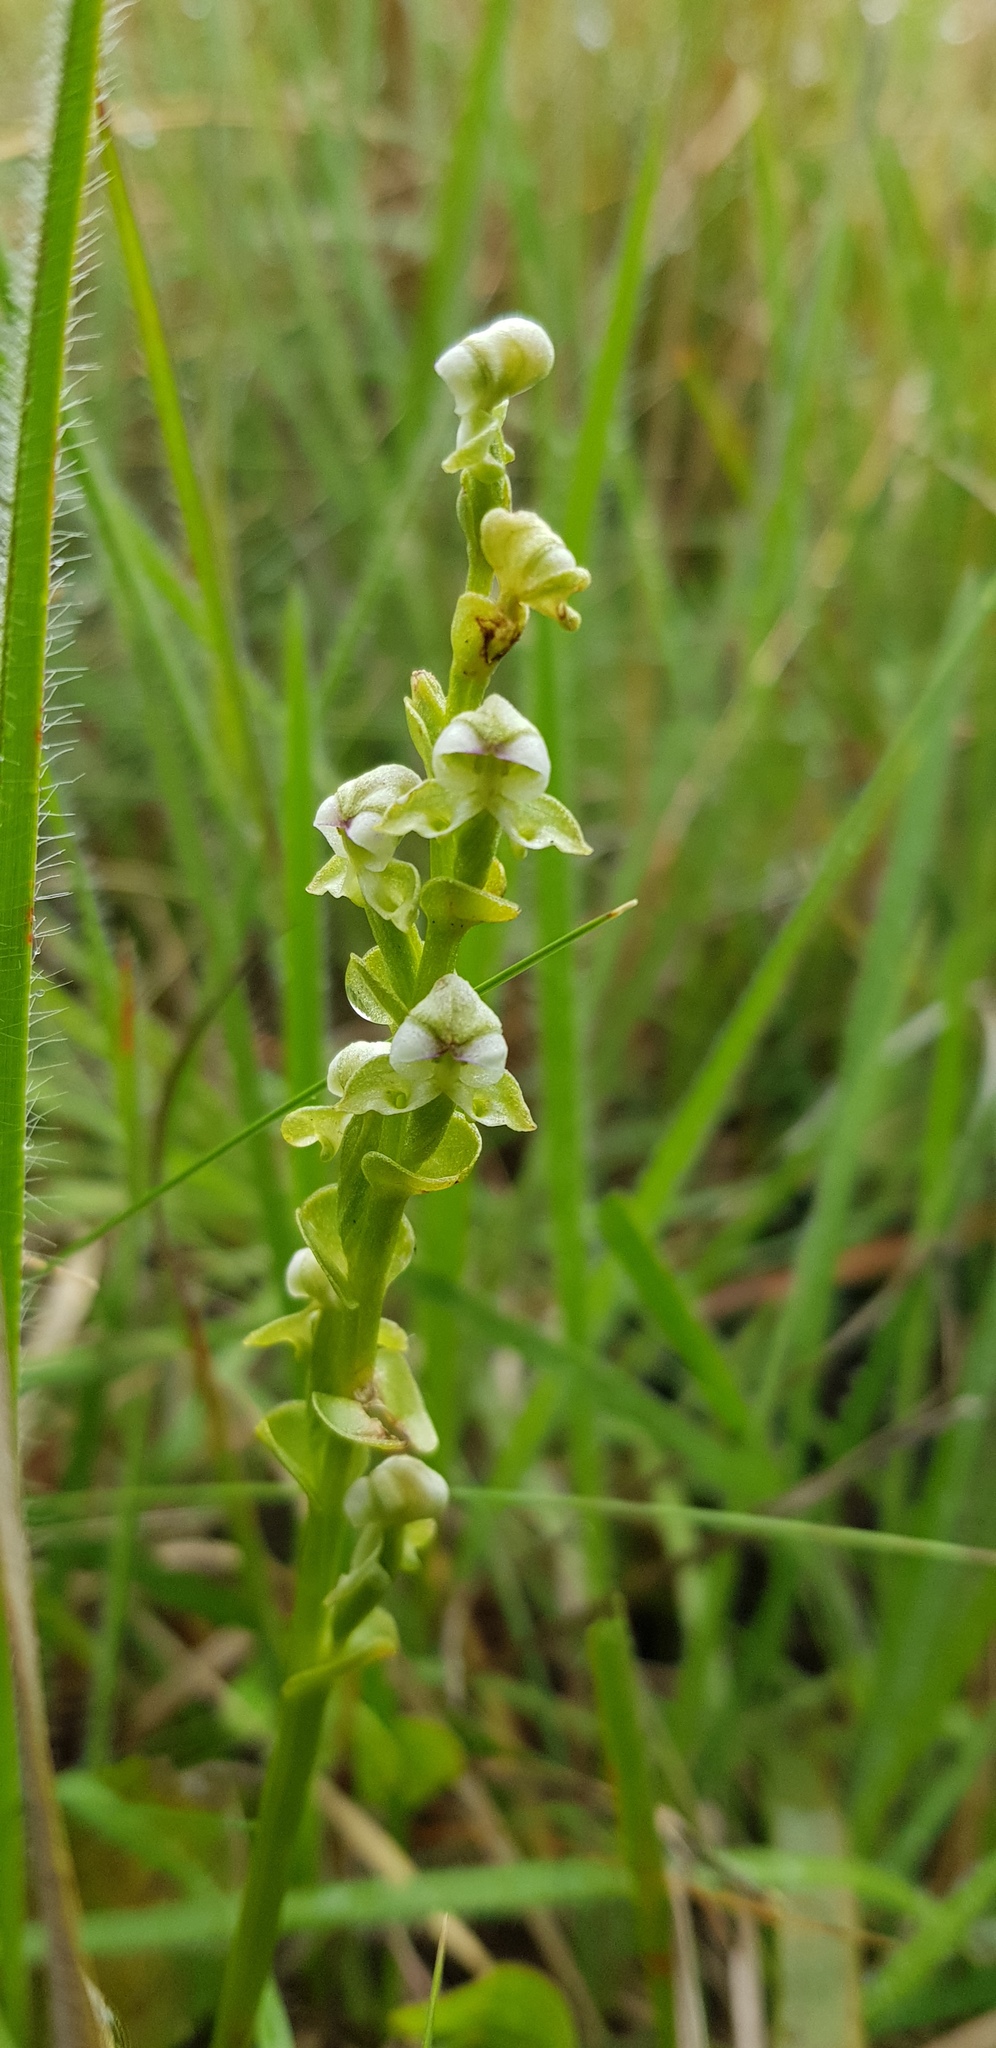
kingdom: Plantae
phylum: Tracheophyta
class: Liliopsida
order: Asparagales
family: Orchidaceae
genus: Disperis
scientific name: Disperis cardiophora
